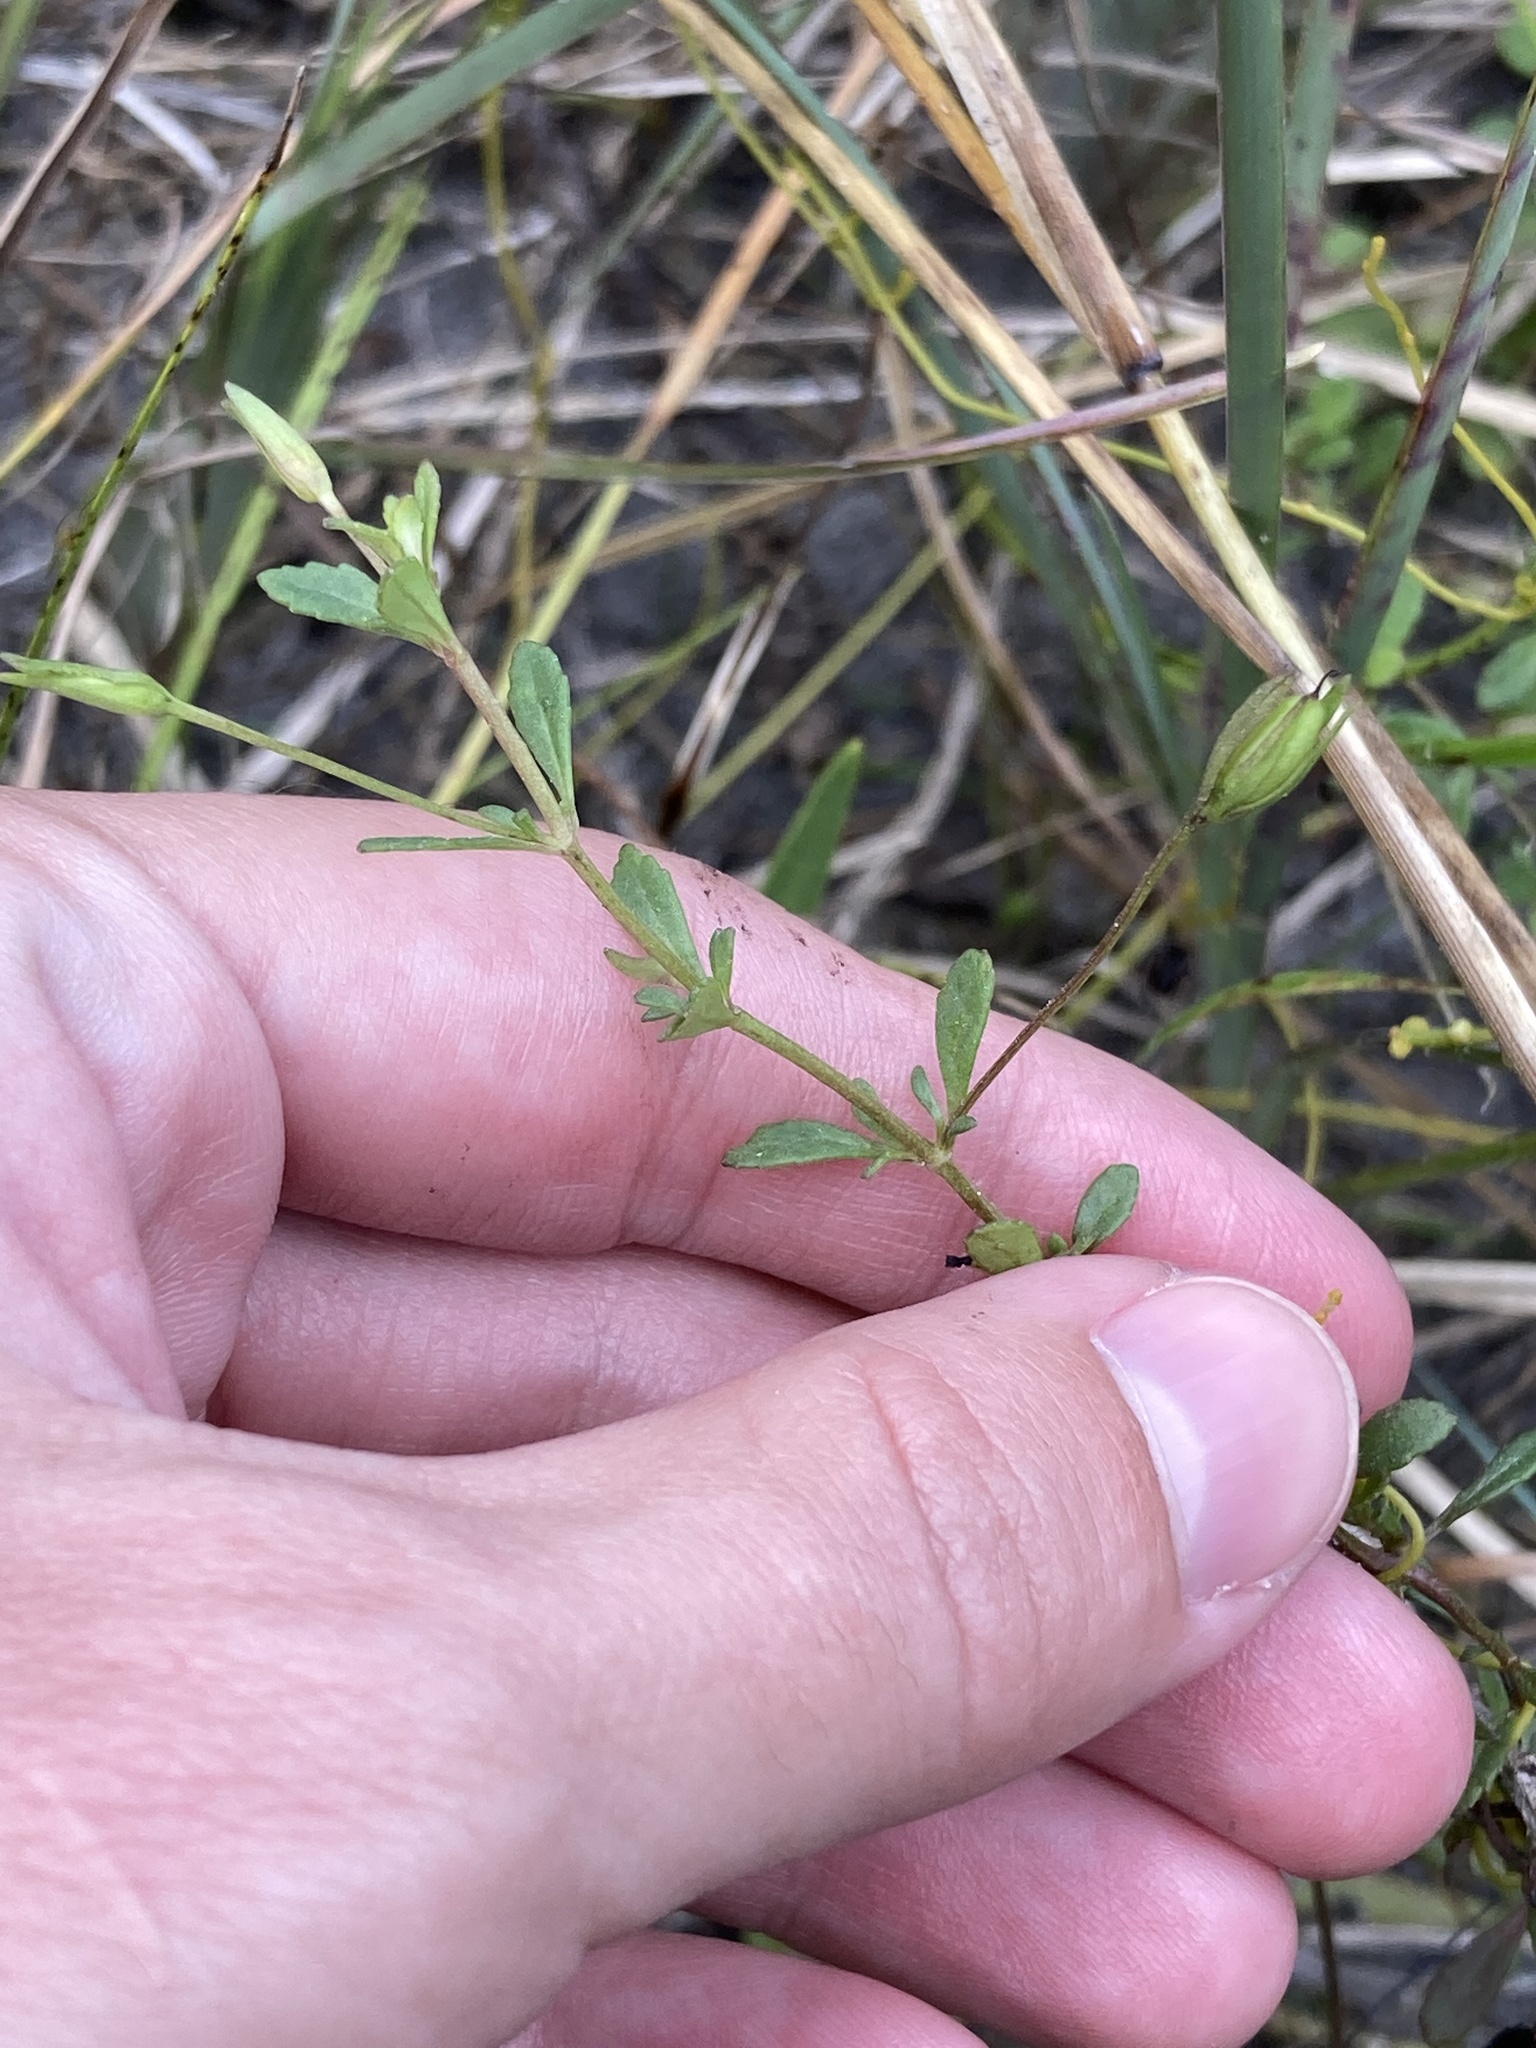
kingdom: Plantae
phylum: Tracheophyta
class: Magnoliopsida
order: Lamiales
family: Plantaginaceae
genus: Mecardonia
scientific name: Mecardonia acuminata
